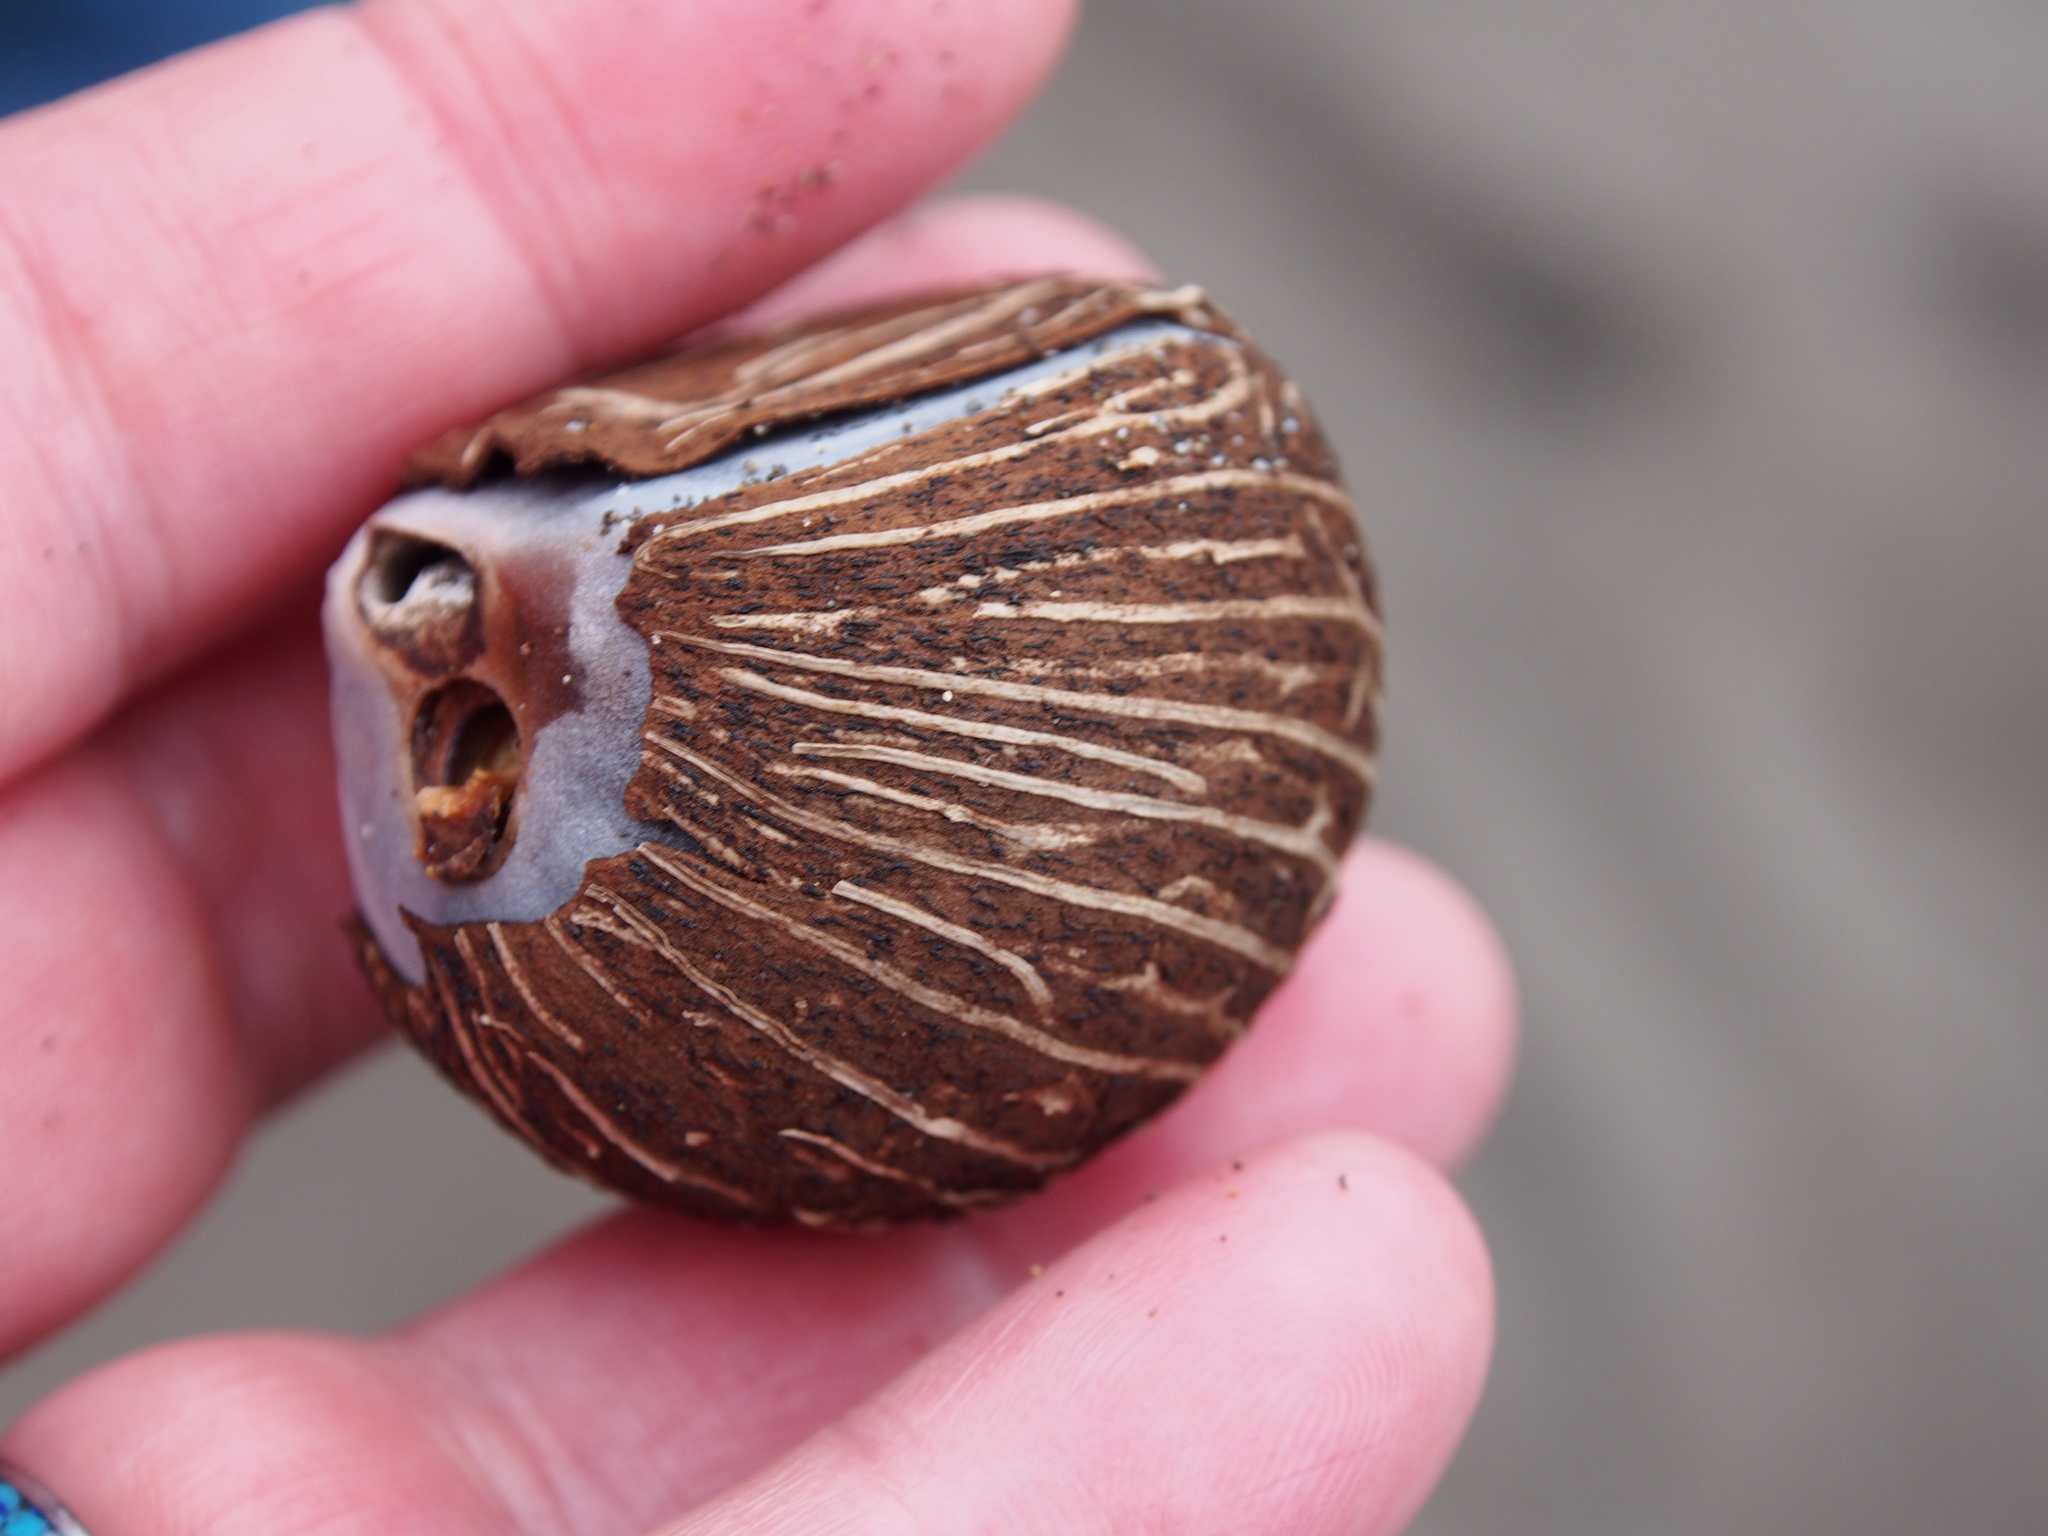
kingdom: Plantae
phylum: Tracheophyta
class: Liliopsida
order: Arecales
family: Arecaceae
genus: Manicaria
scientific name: Manicaria saccifera
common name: Sea coconut
